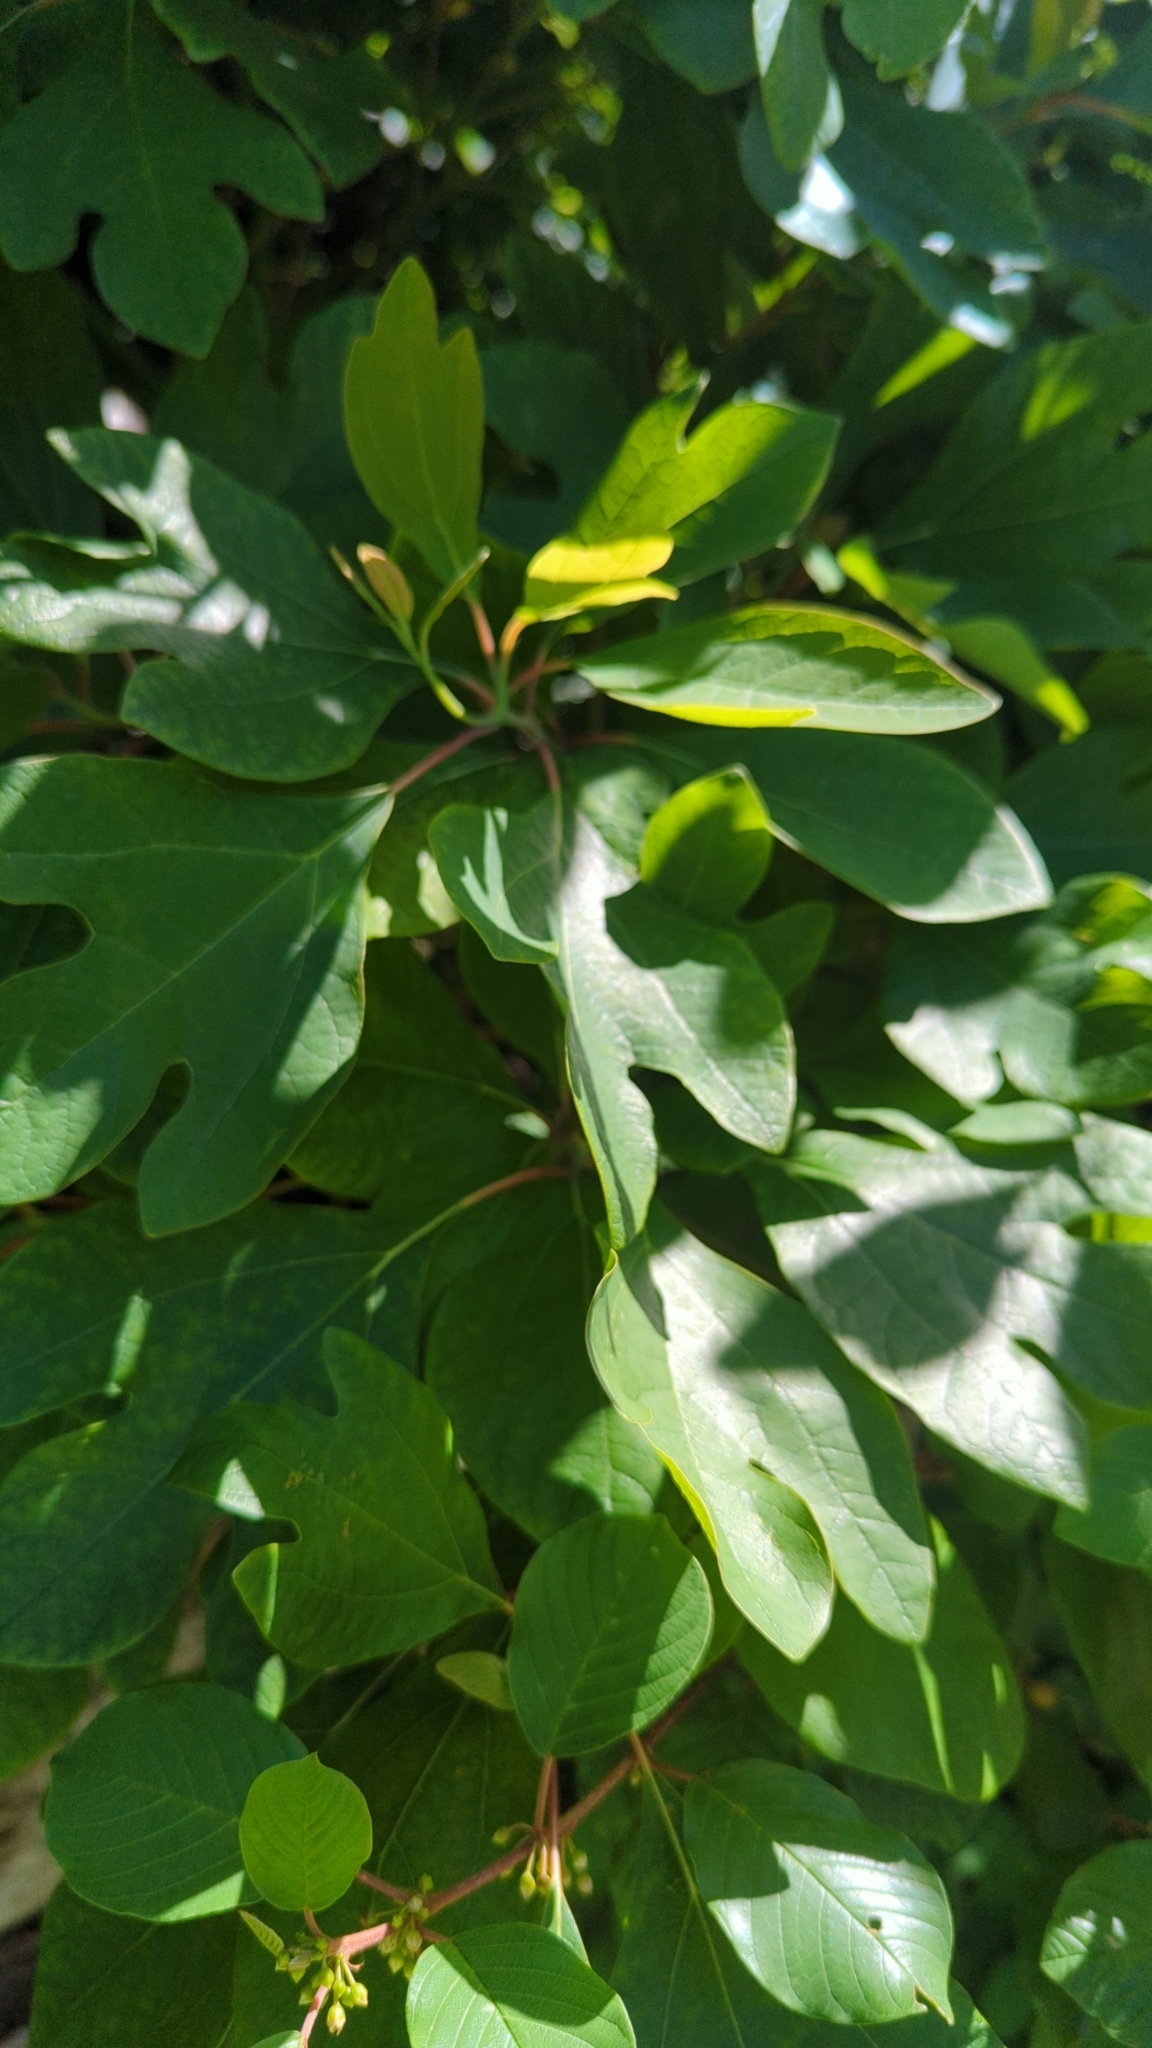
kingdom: Plantae
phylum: Tracheophyta
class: Magnoliopsida
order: Laurales
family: Lauraceae
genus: Sassafras
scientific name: Sassafras albidum
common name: Sassafras
